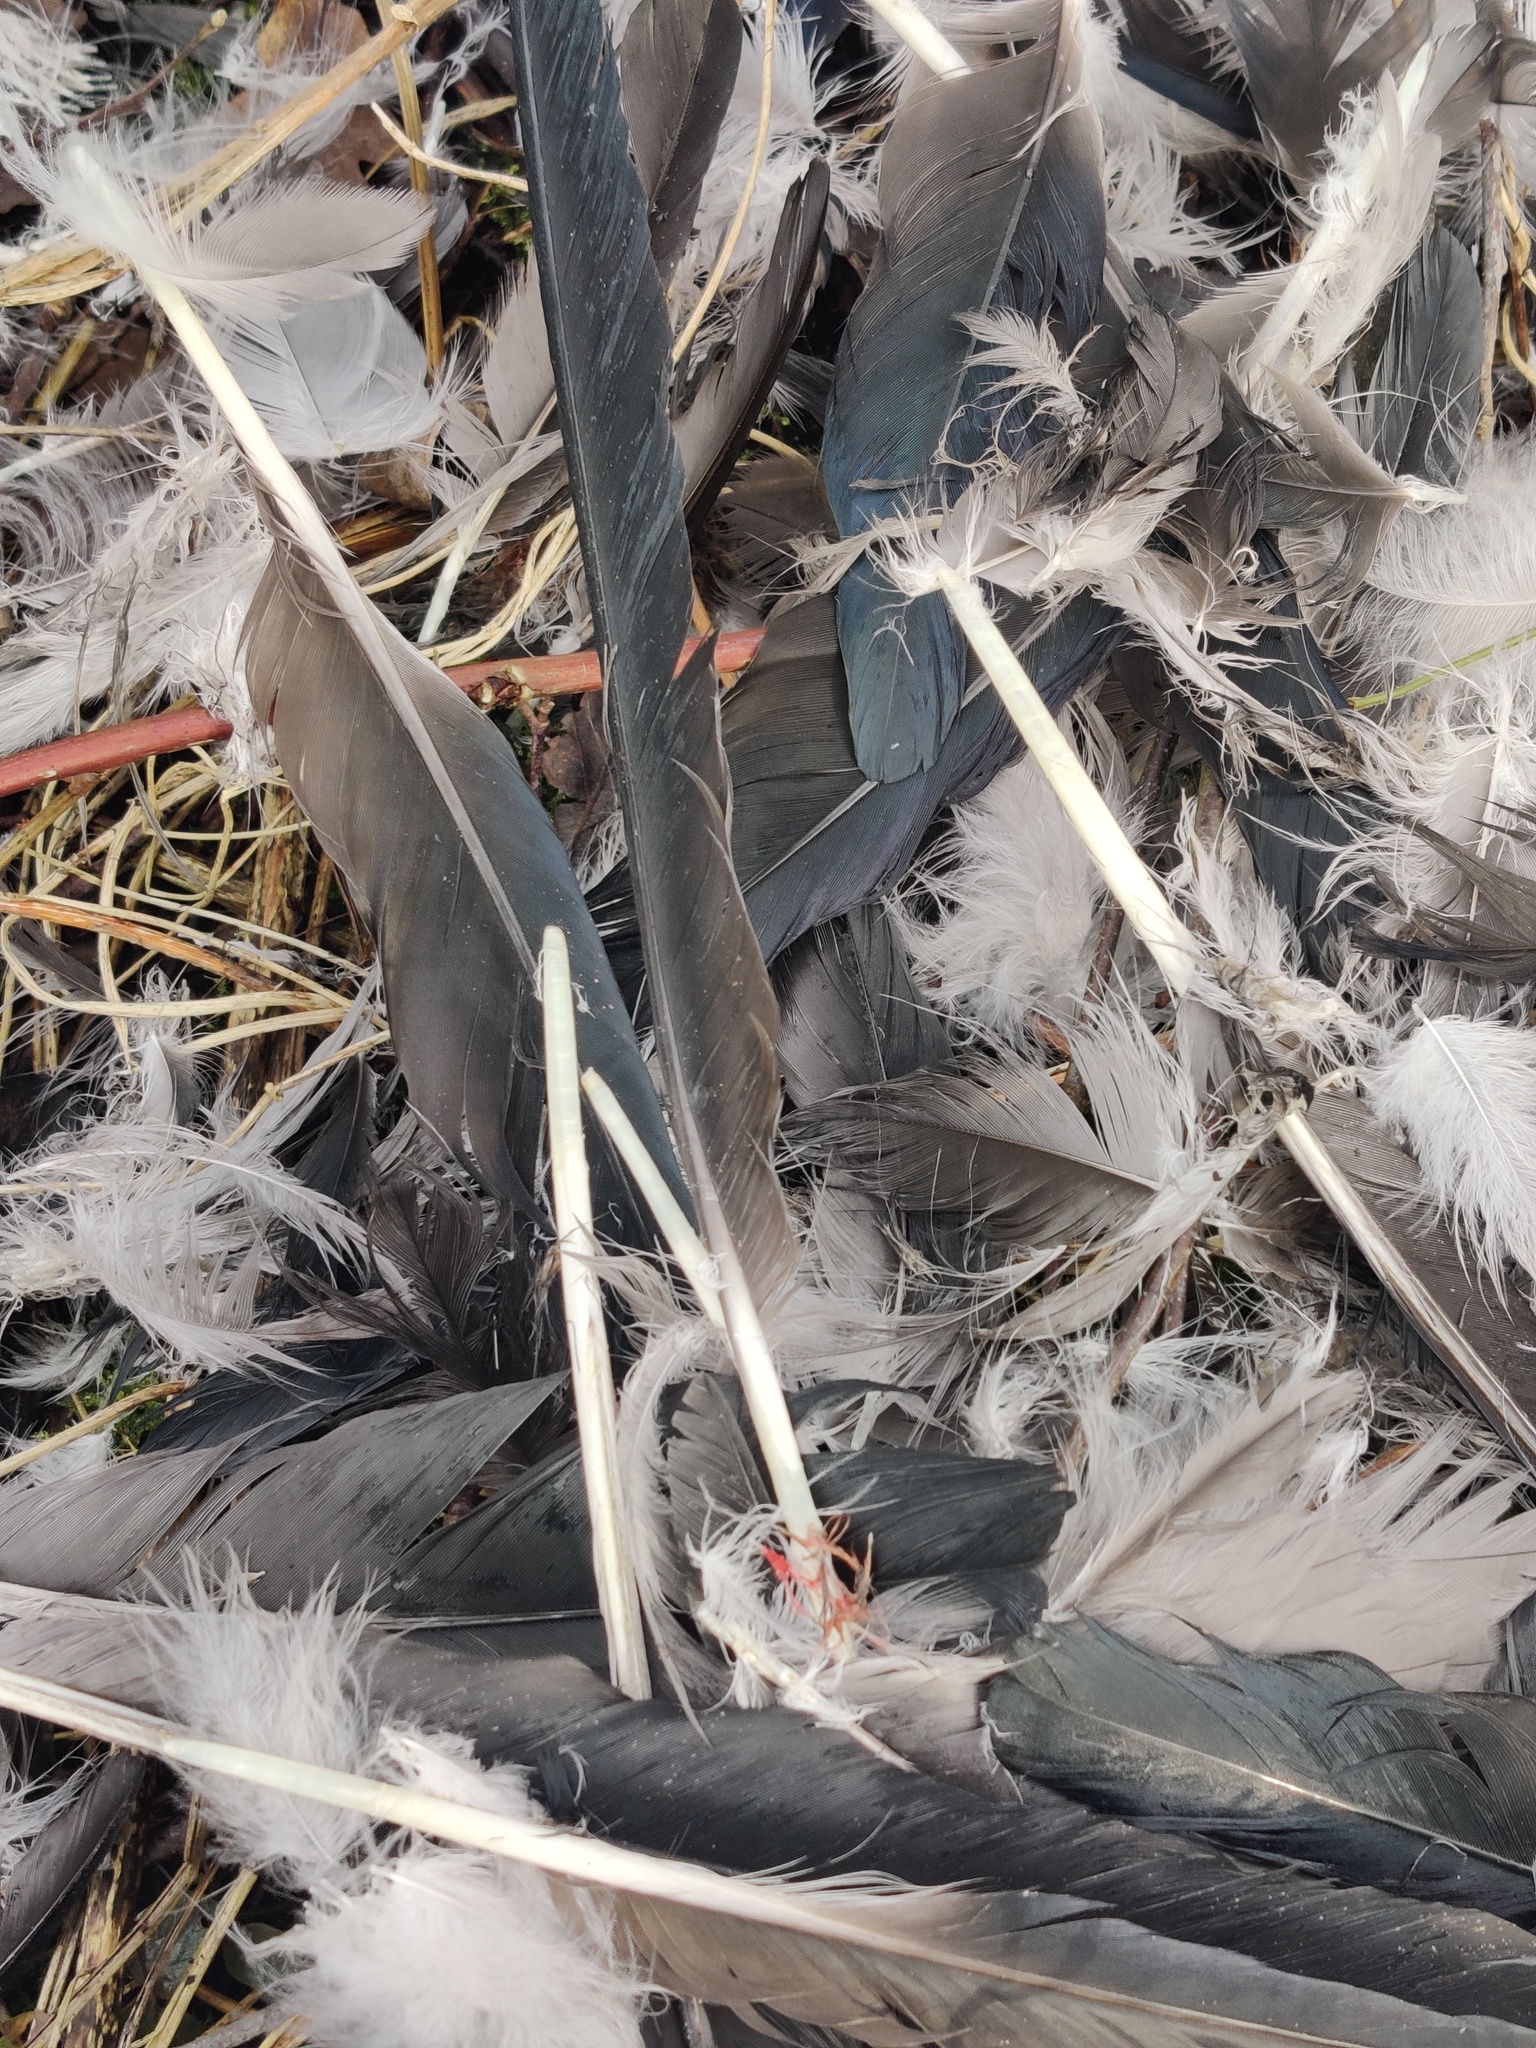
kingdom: Animalia
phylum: Chordata
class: Aves
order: Passeriformes
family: Corvidae
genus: Corvus
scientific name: Corvus cornix
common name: Hooded crow
